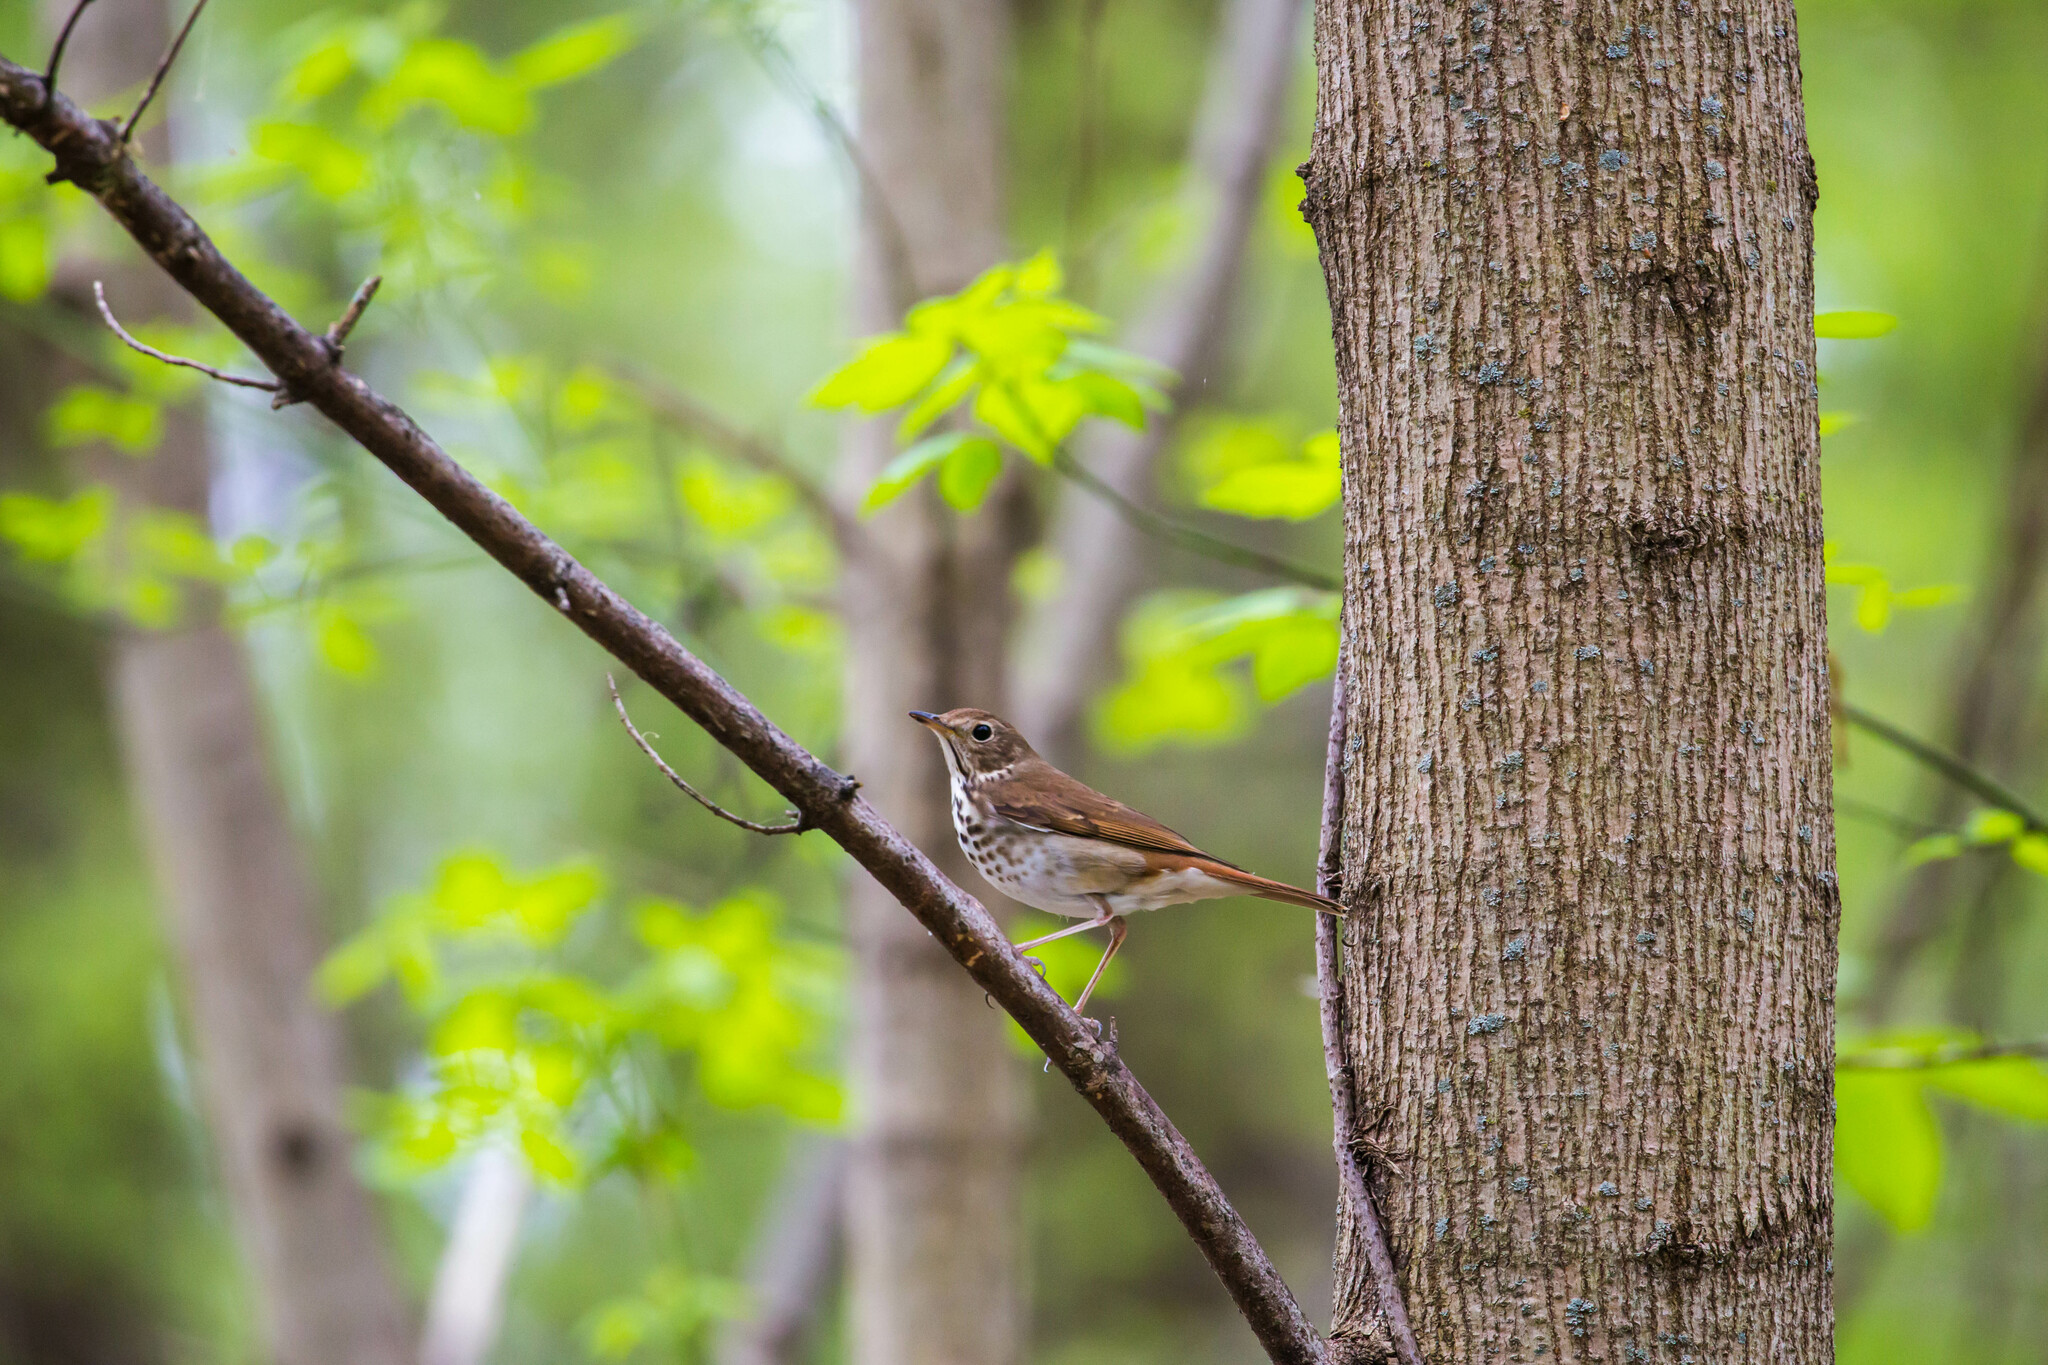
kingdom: Animalia
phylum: Chordata
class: Aves
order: Passeriformes
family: Turdidae
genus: Catharus
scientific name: Catharus guttatus
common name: Hermit thrush
